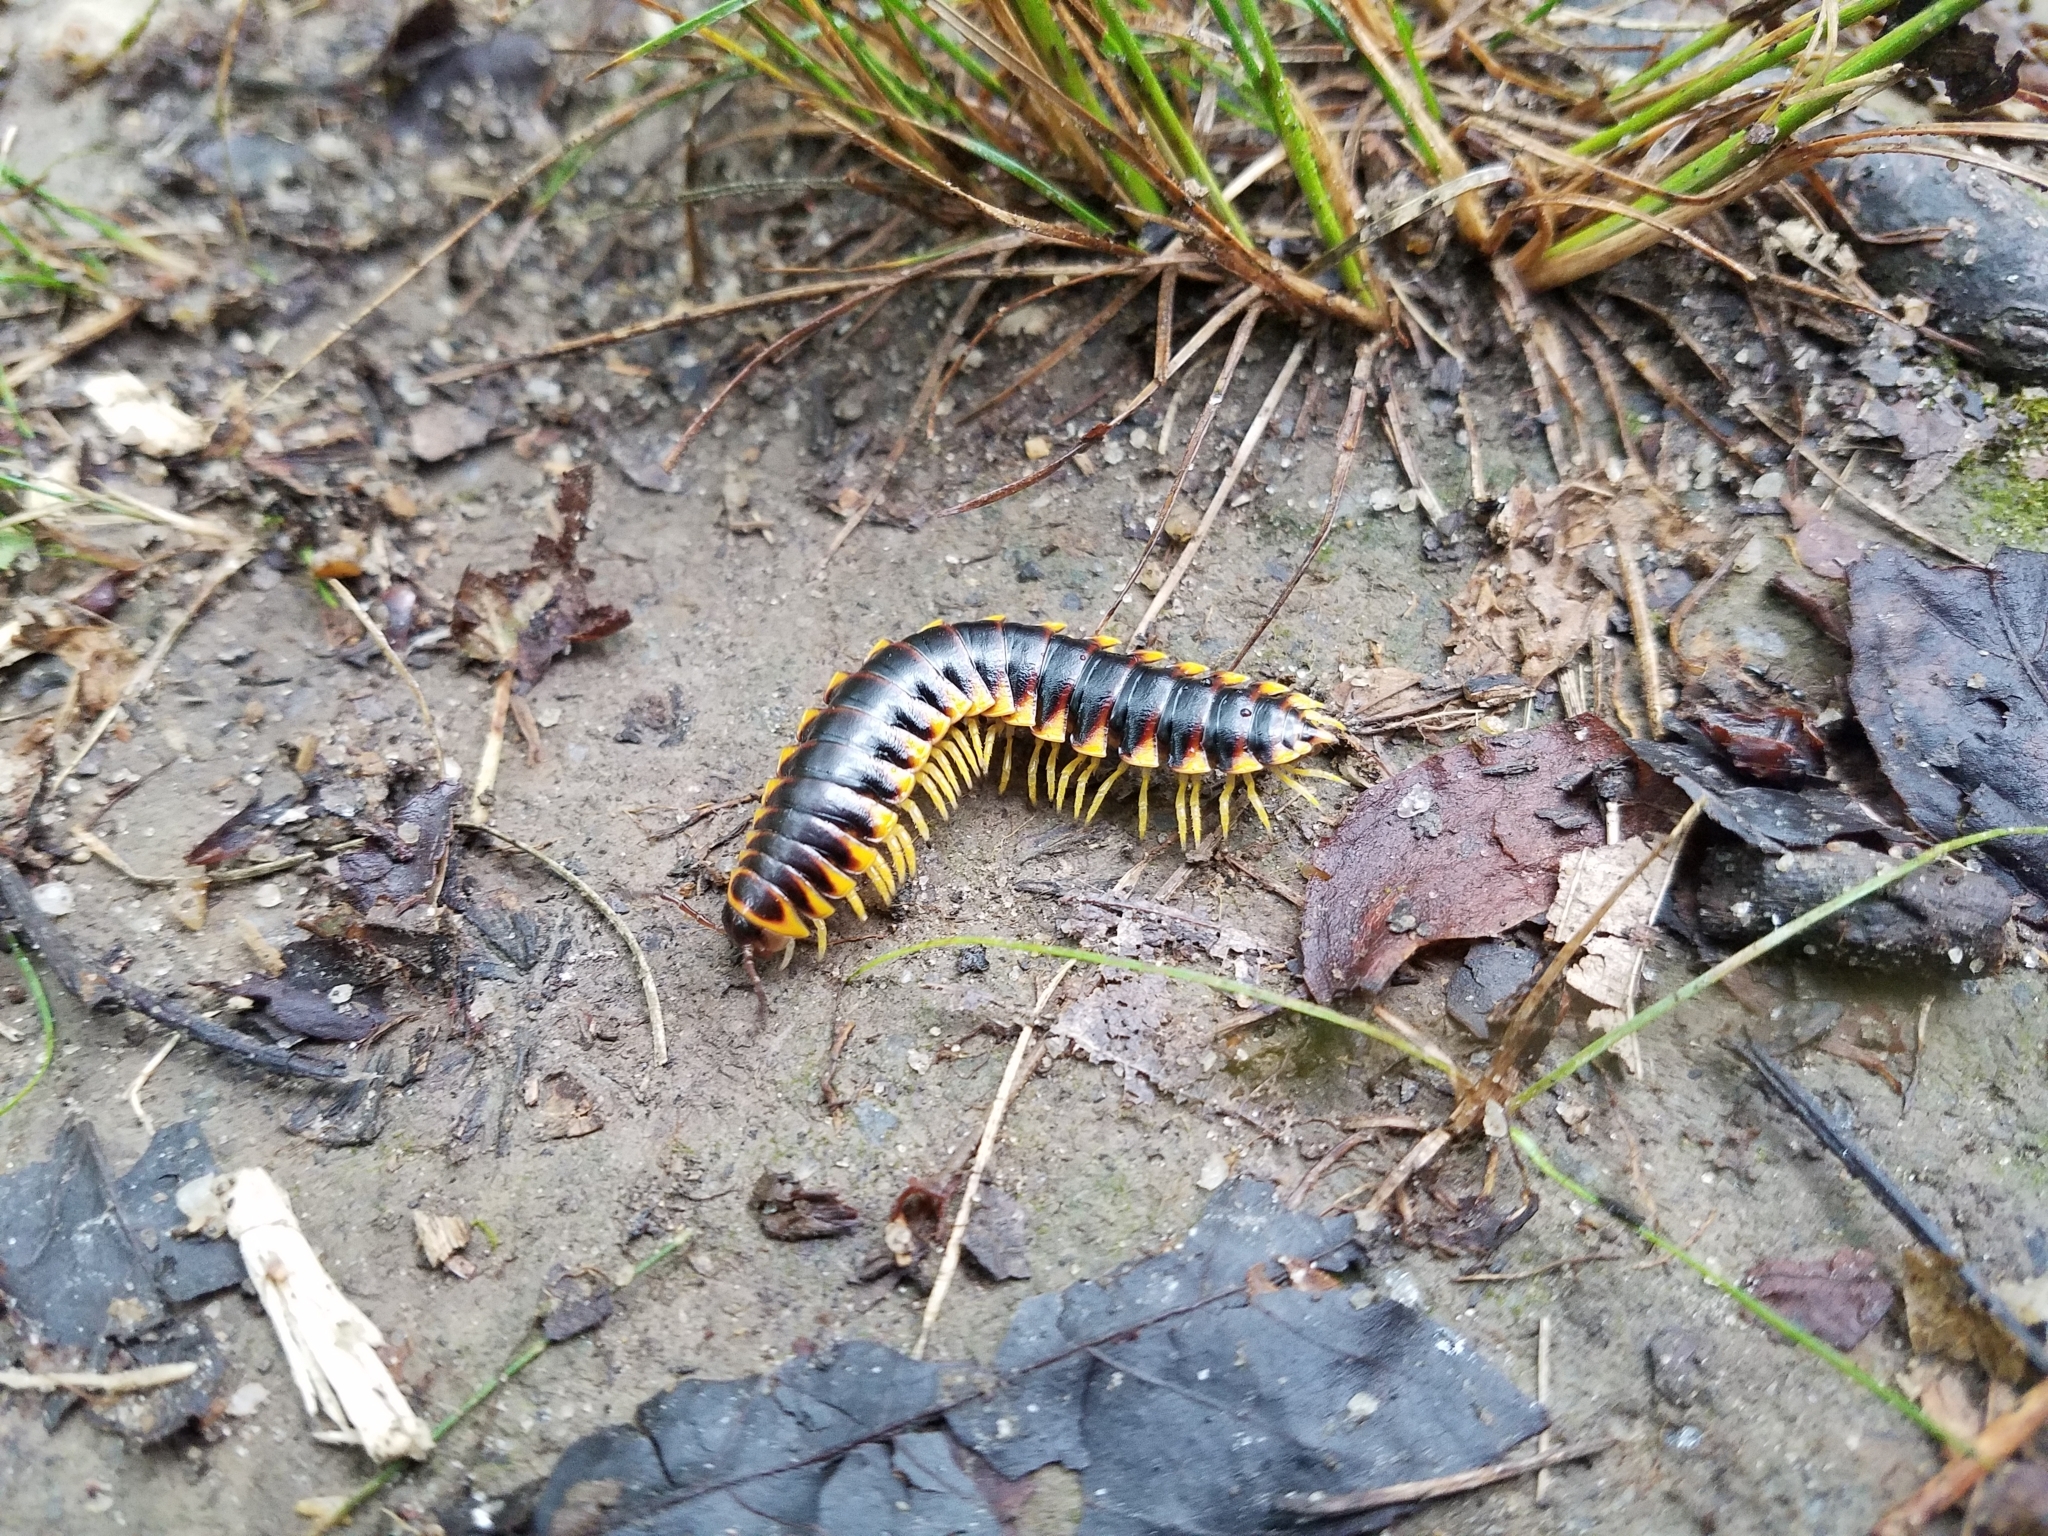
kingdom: Animalia
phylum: Arthropoda
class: Diplopoda
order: Polydesmida
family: Xystodesmidae
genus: Apheloria
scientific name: Apheloria virginiensis
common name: Black-and-gold flat millipede
